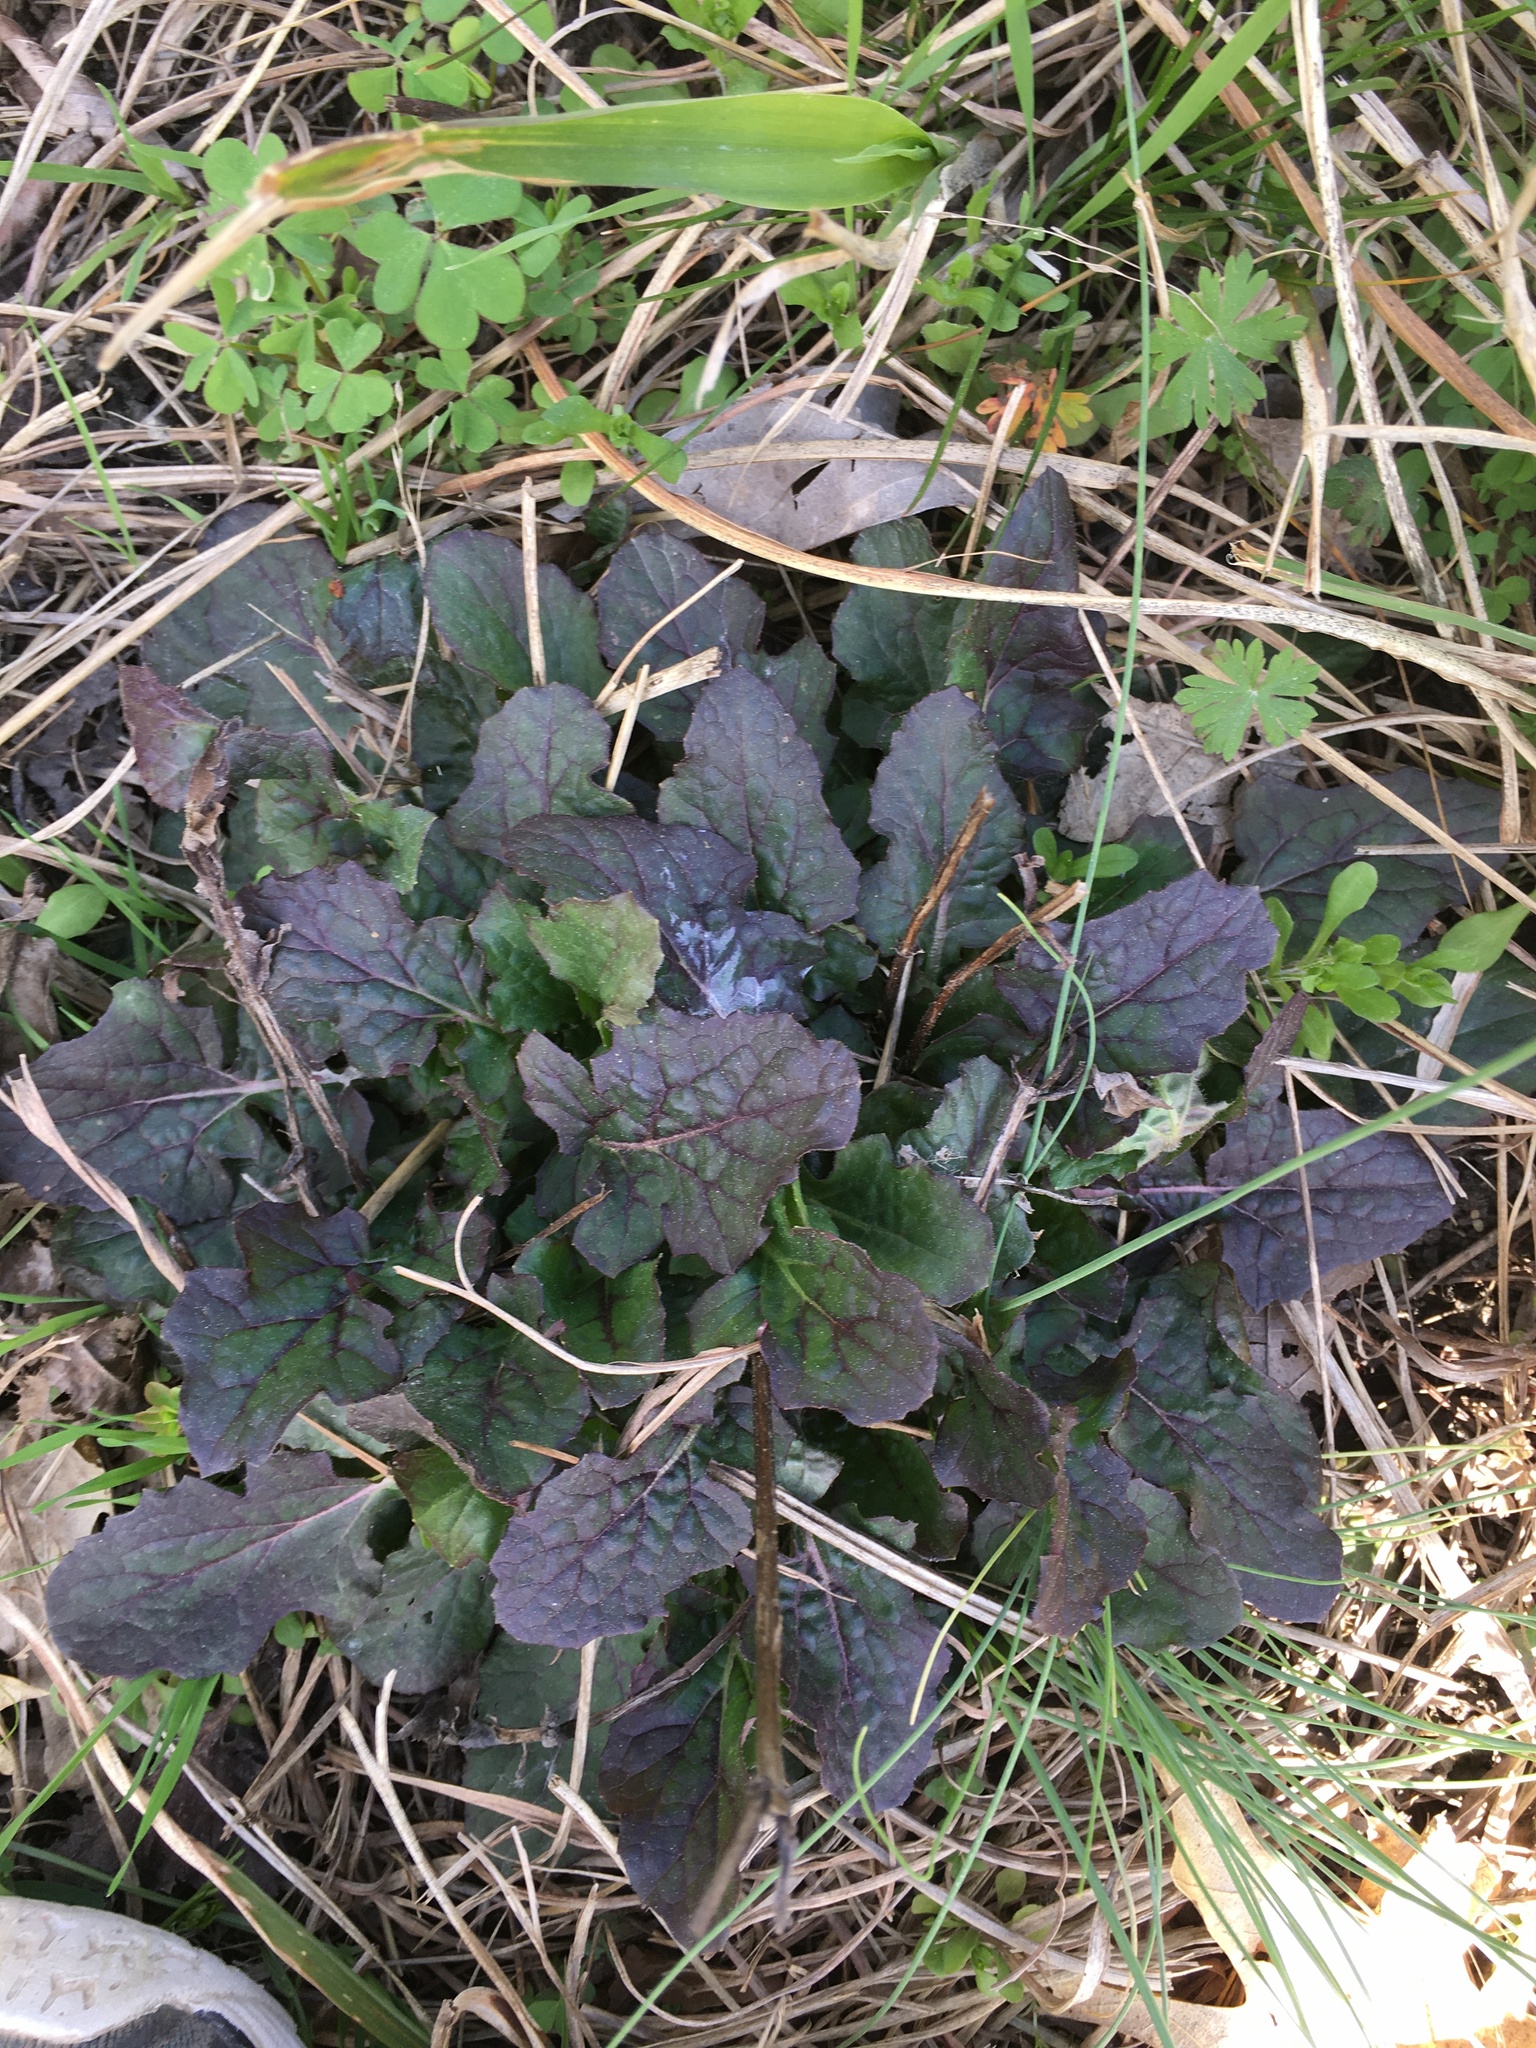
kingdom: Plantae
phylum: Tracheophyta
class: Magnoliopsida
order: Lamiales
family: Lamiaceae
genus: Salvia
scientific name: Salvia lyrata
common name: Cancerweed
